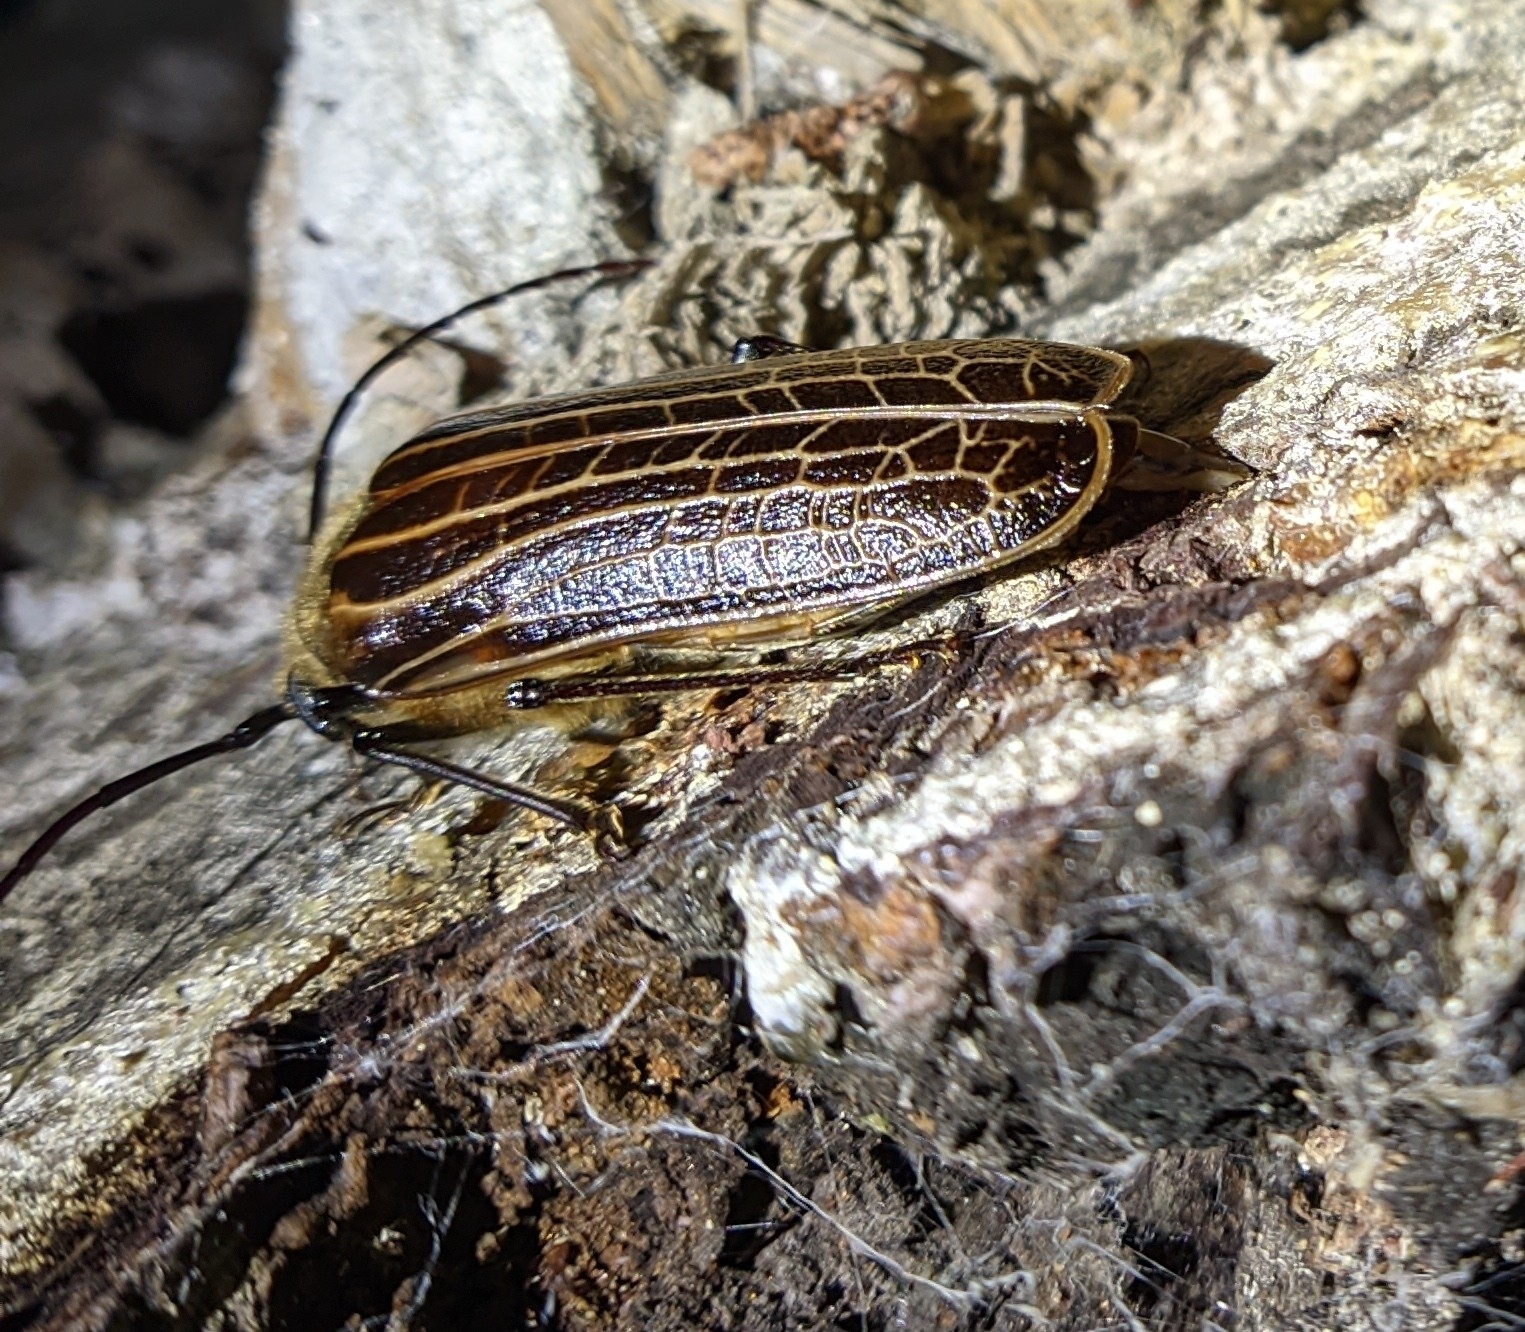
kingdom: Animalia
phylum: Arthropoda
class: Insecta
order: Coleoptera
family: Cerambycidae
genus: Prionoplus
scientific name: Prionoplus reticularis
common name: Huhu beetle
